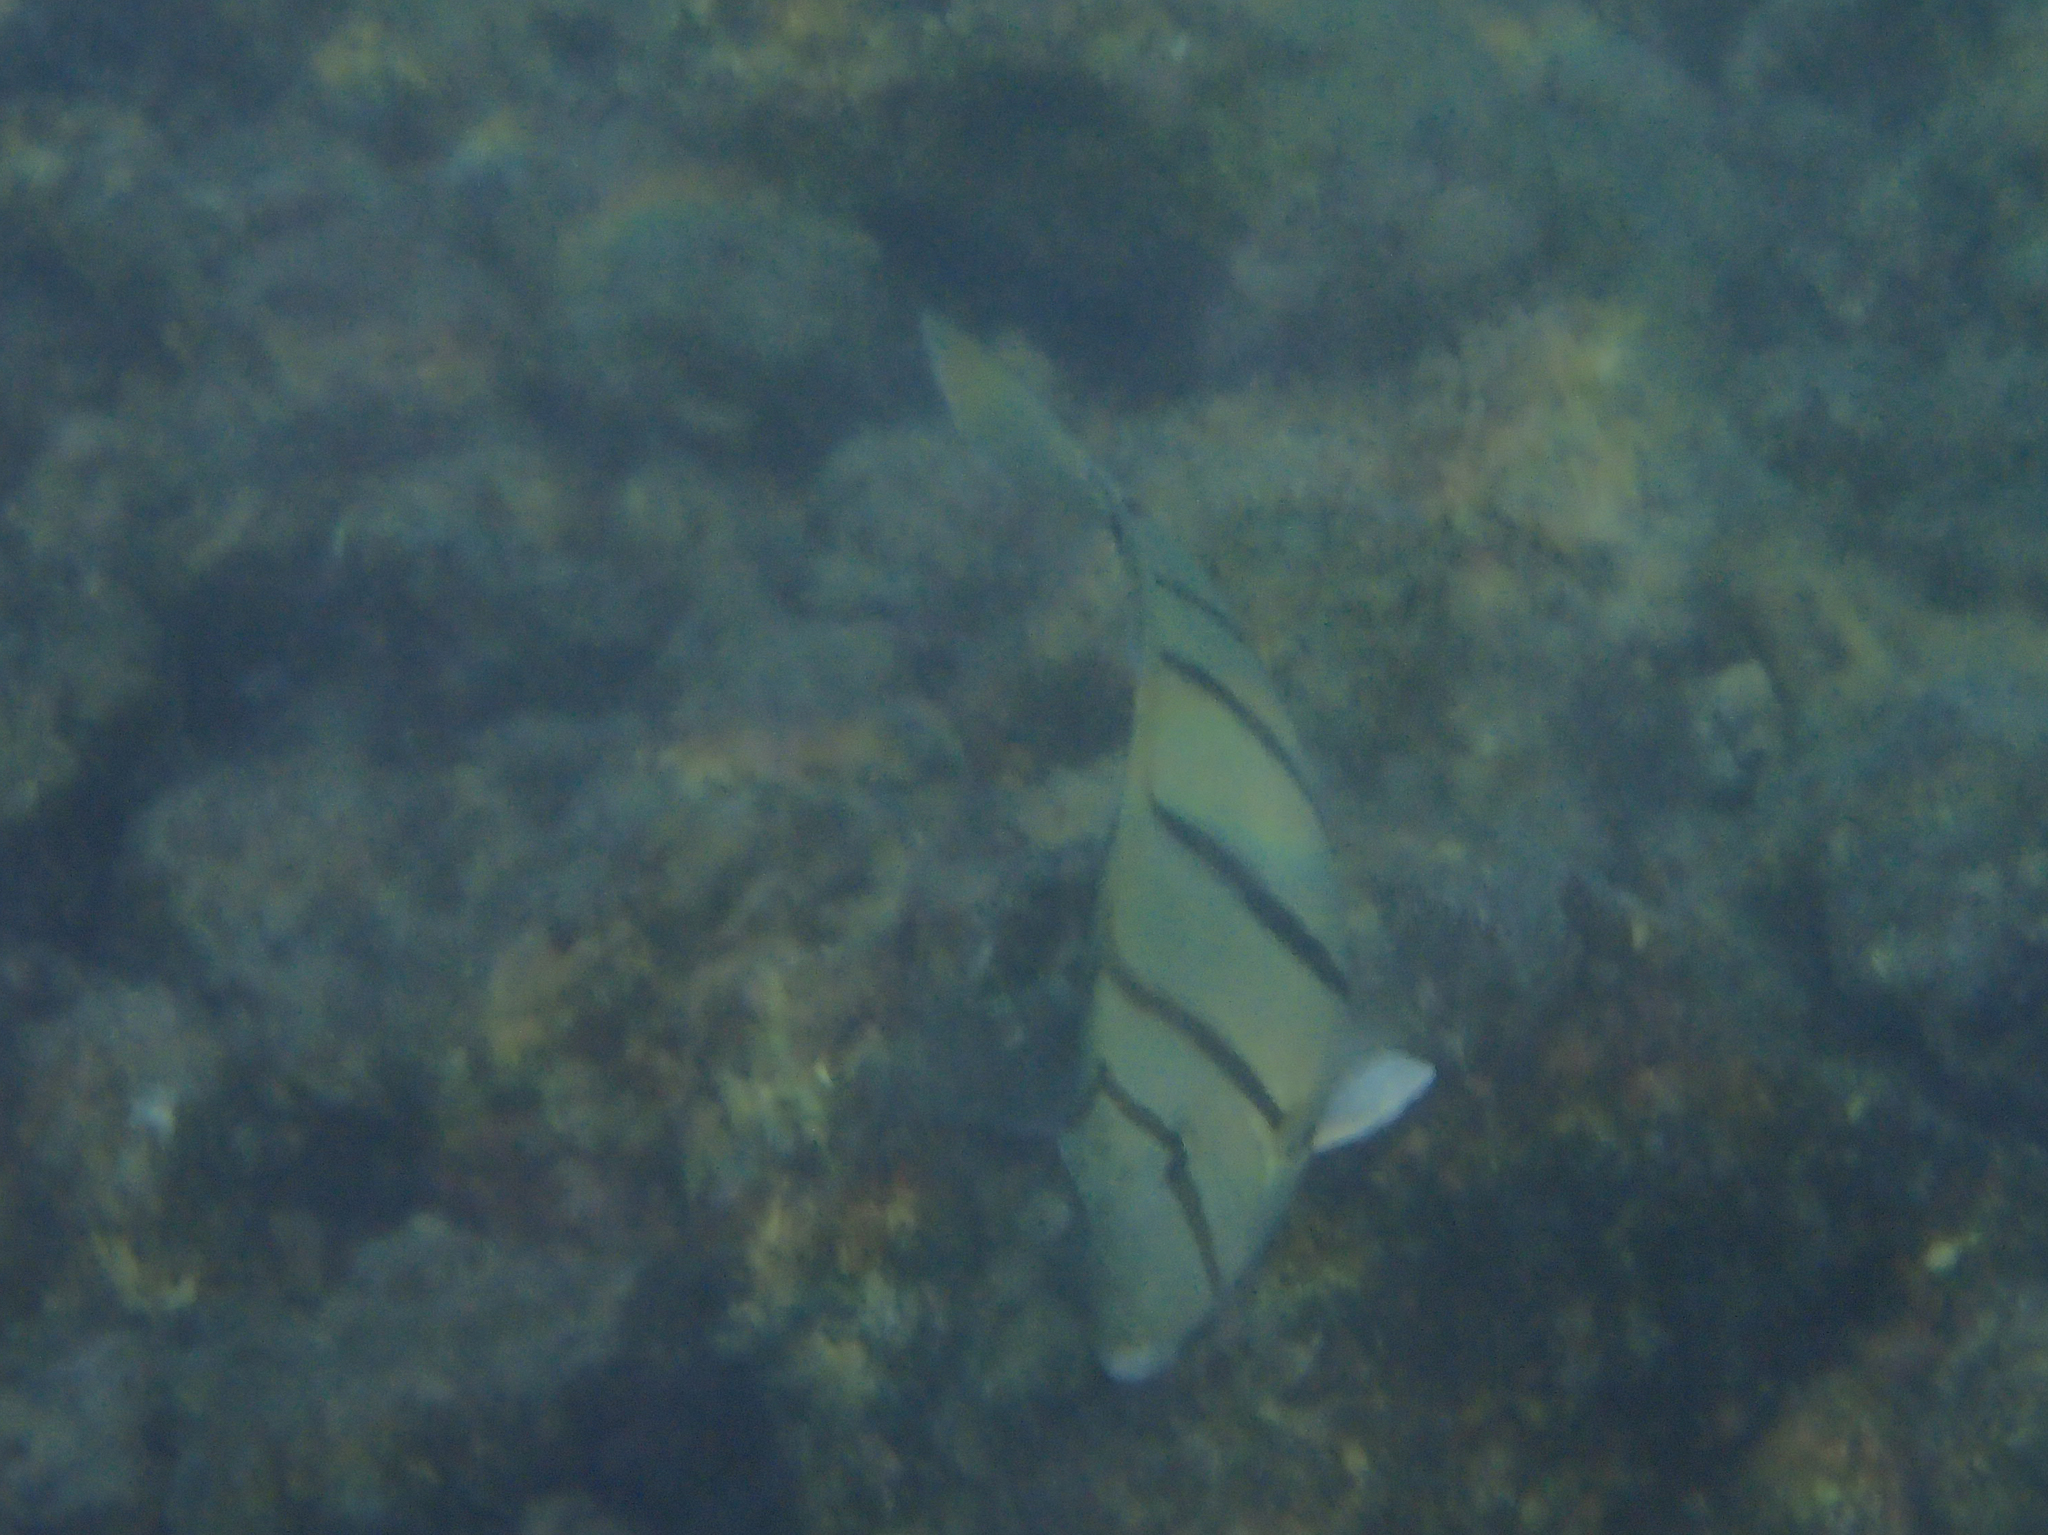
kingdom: Animalia
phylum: Chordata
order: Perciformes
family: Acanthuridae
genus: Acanthurus
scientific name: Acanthurus triostegus
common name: Convict surgeonfish
